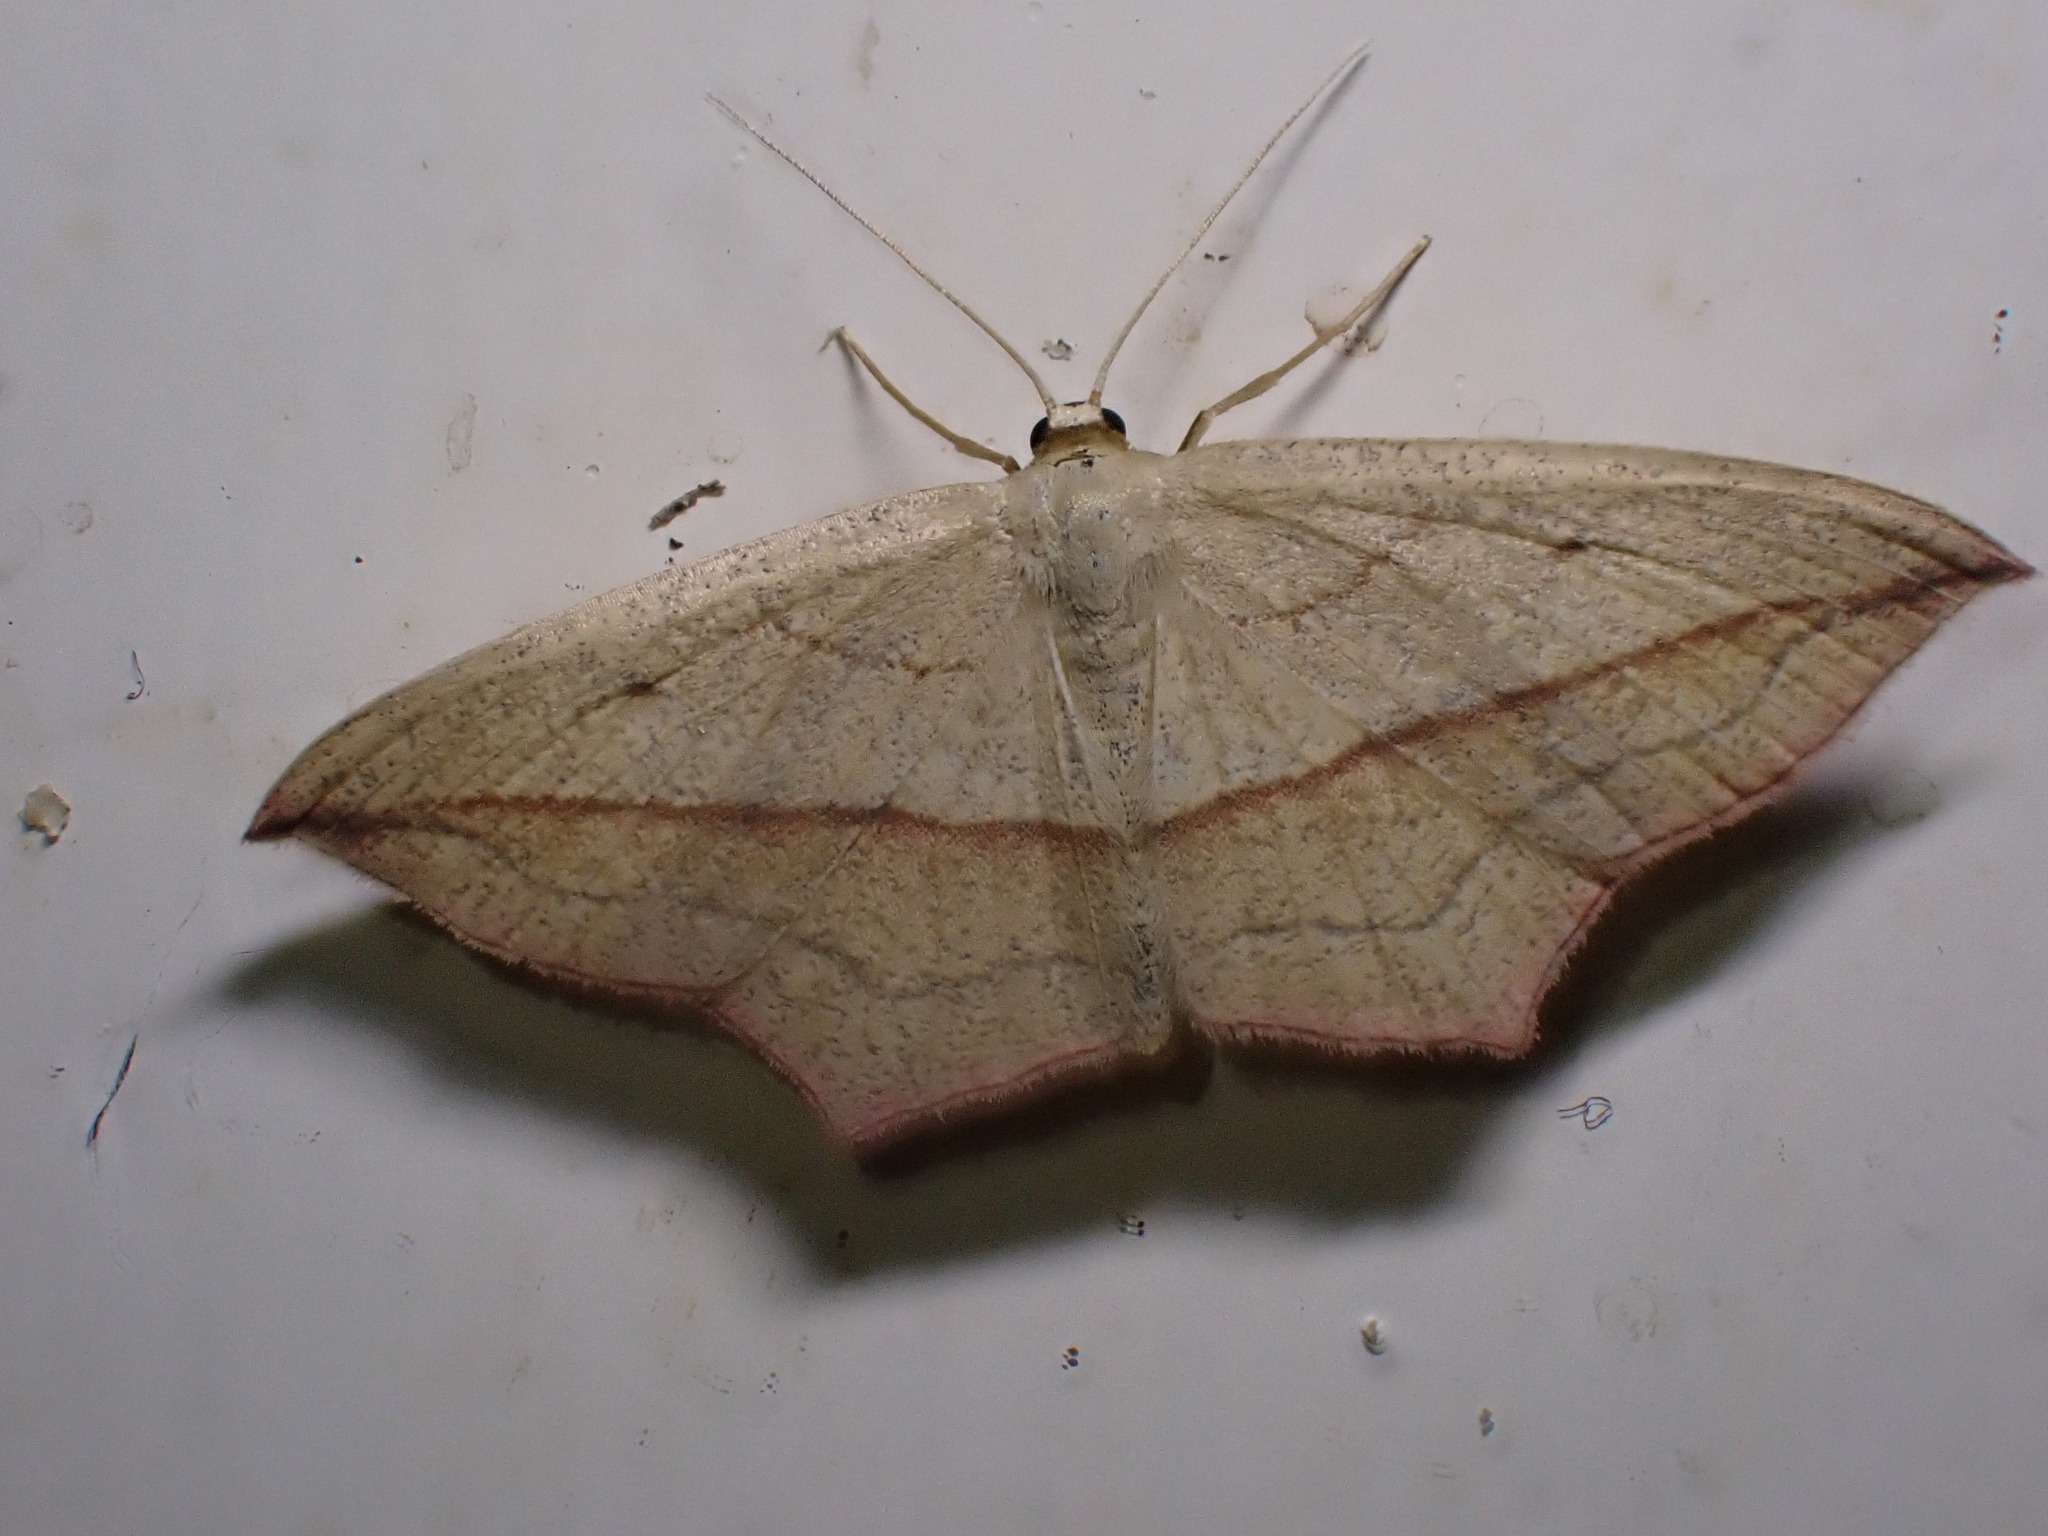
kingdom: Animalia
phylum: Arthropoda
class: Insecta
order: Lepidoptera
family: Geometridae
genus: Timandra
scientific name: Timandra comae
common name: Blood-vein
